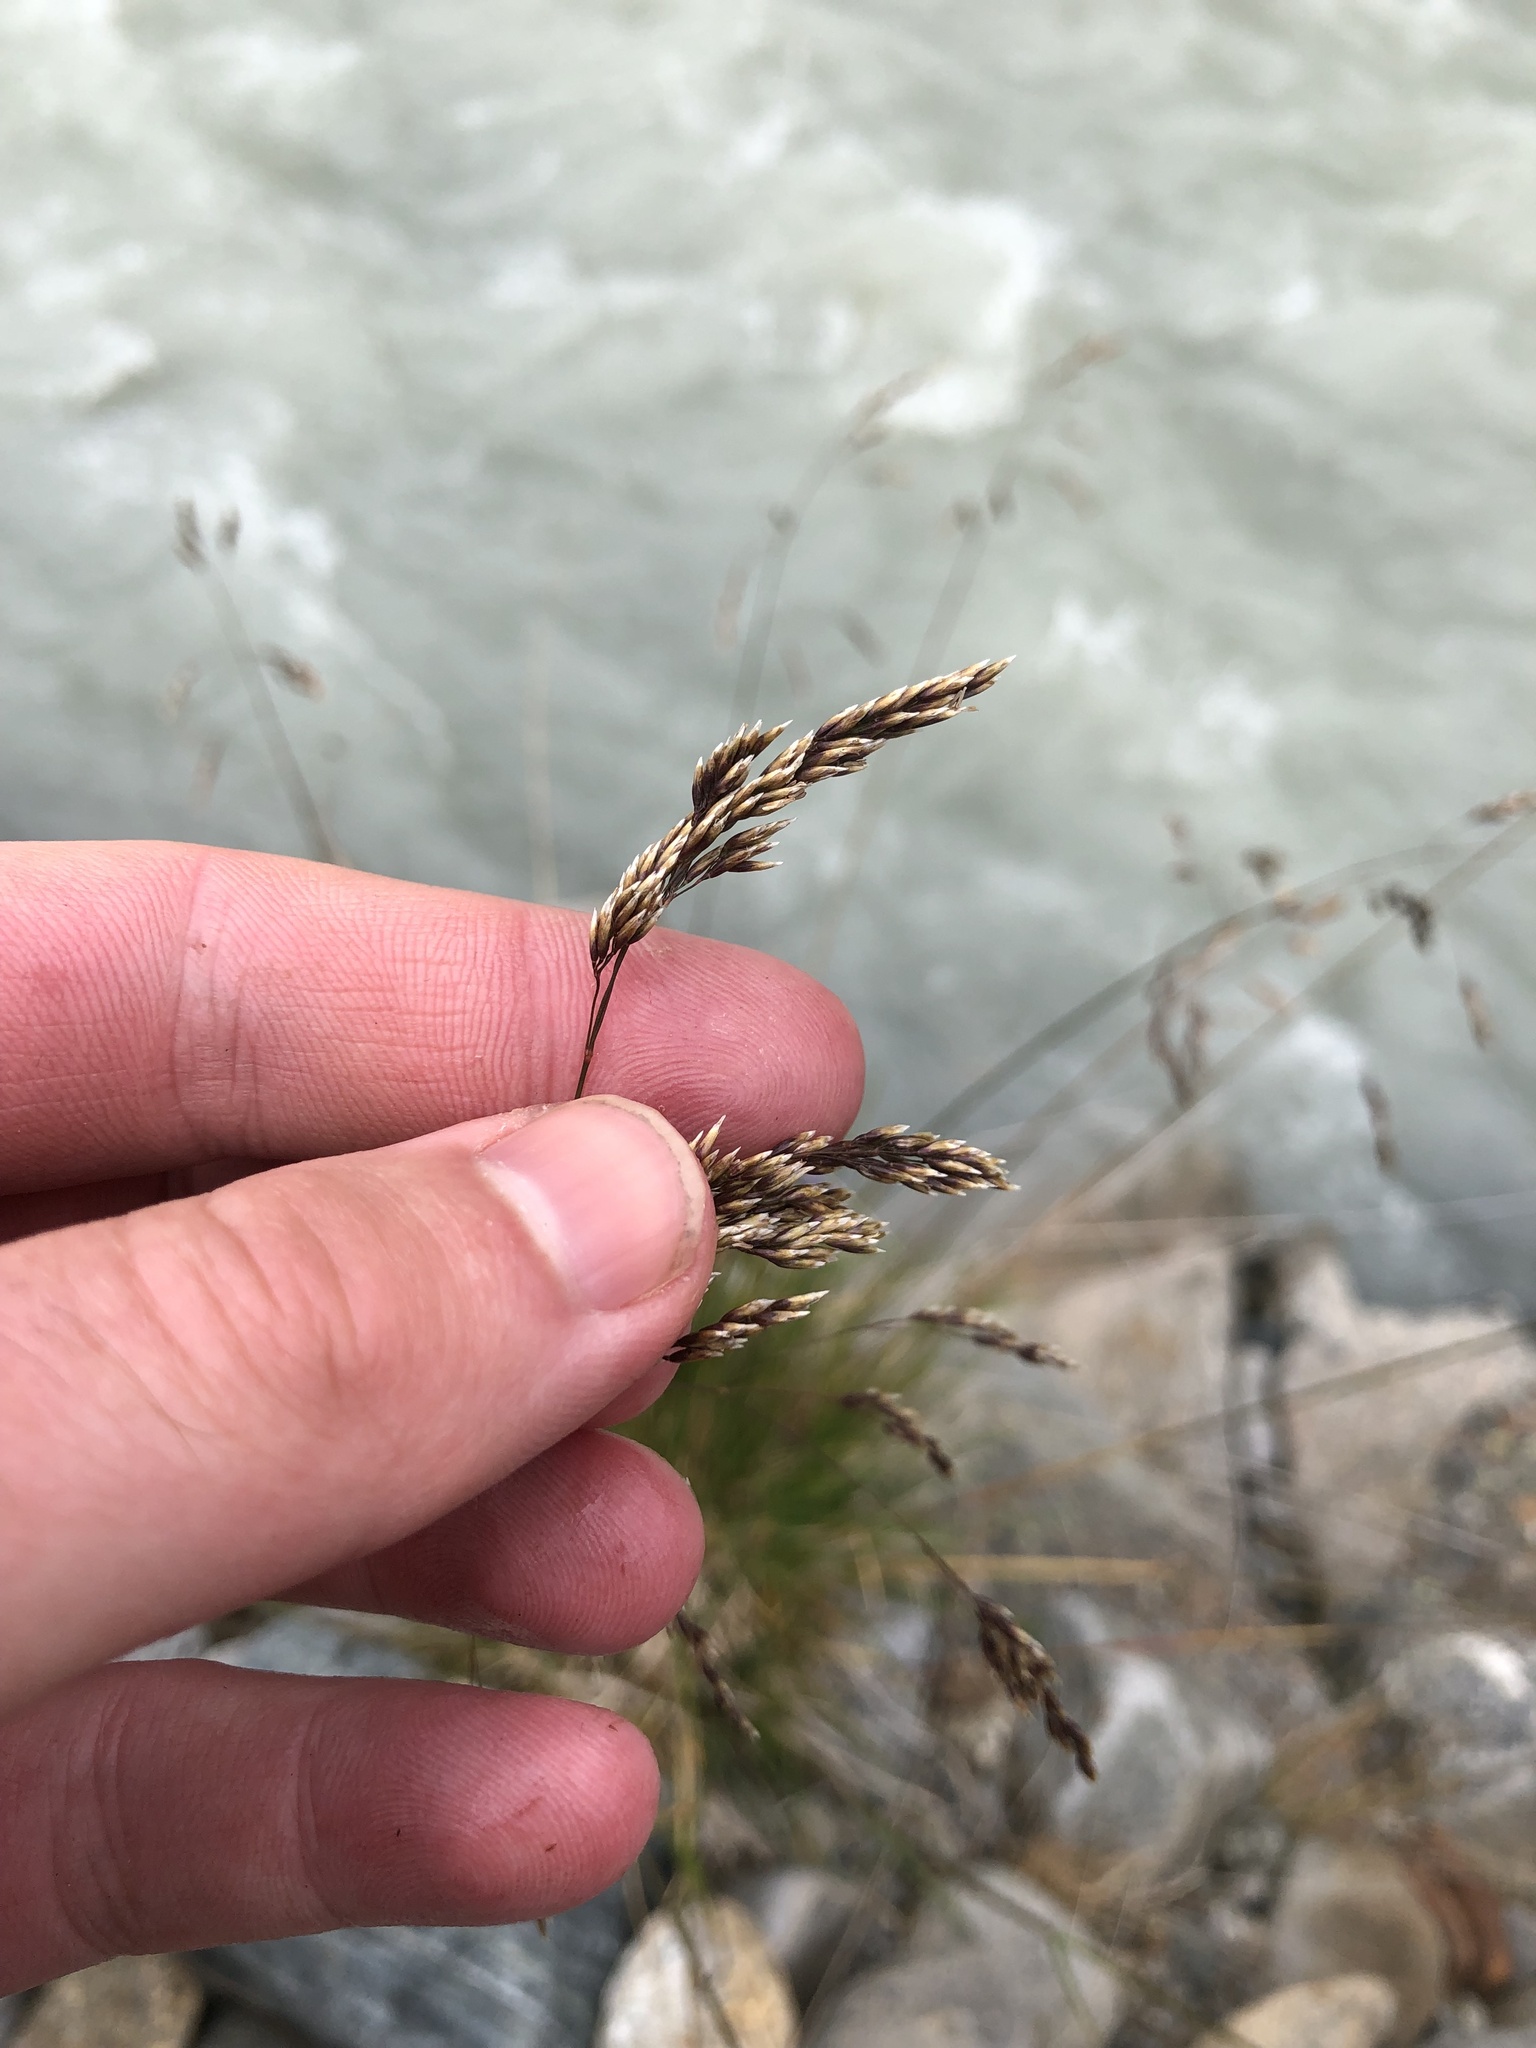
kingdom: Plantae
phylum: Tracheophyta
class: Liliopsida
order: Poales
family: Poaceae
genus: Deschampsia
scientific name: Deschampsia cespitosa
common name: Tufted hair-grass
